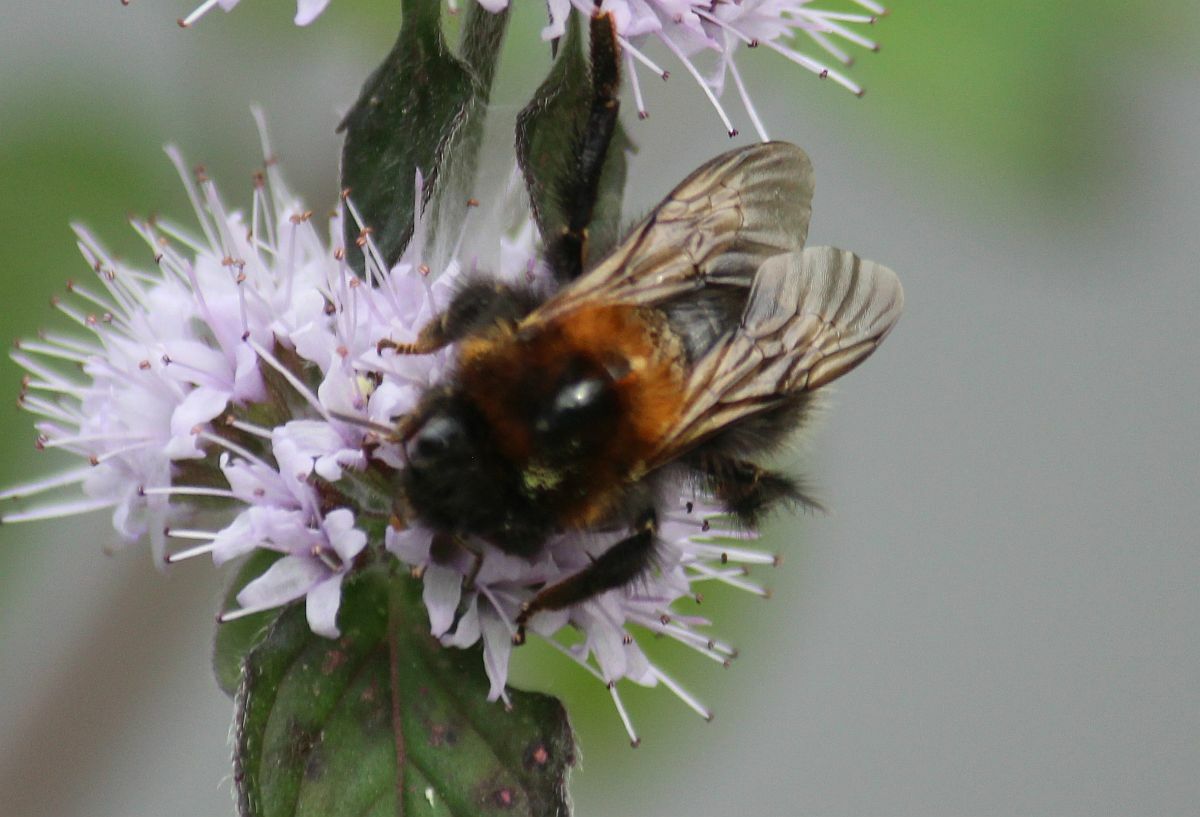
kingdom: Animalia
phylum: Arthropoda
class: Insecta
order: Hymenoptera
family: Apidae
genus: Bombus
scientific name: Bombus hypnorum
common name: New garden bumblebee
